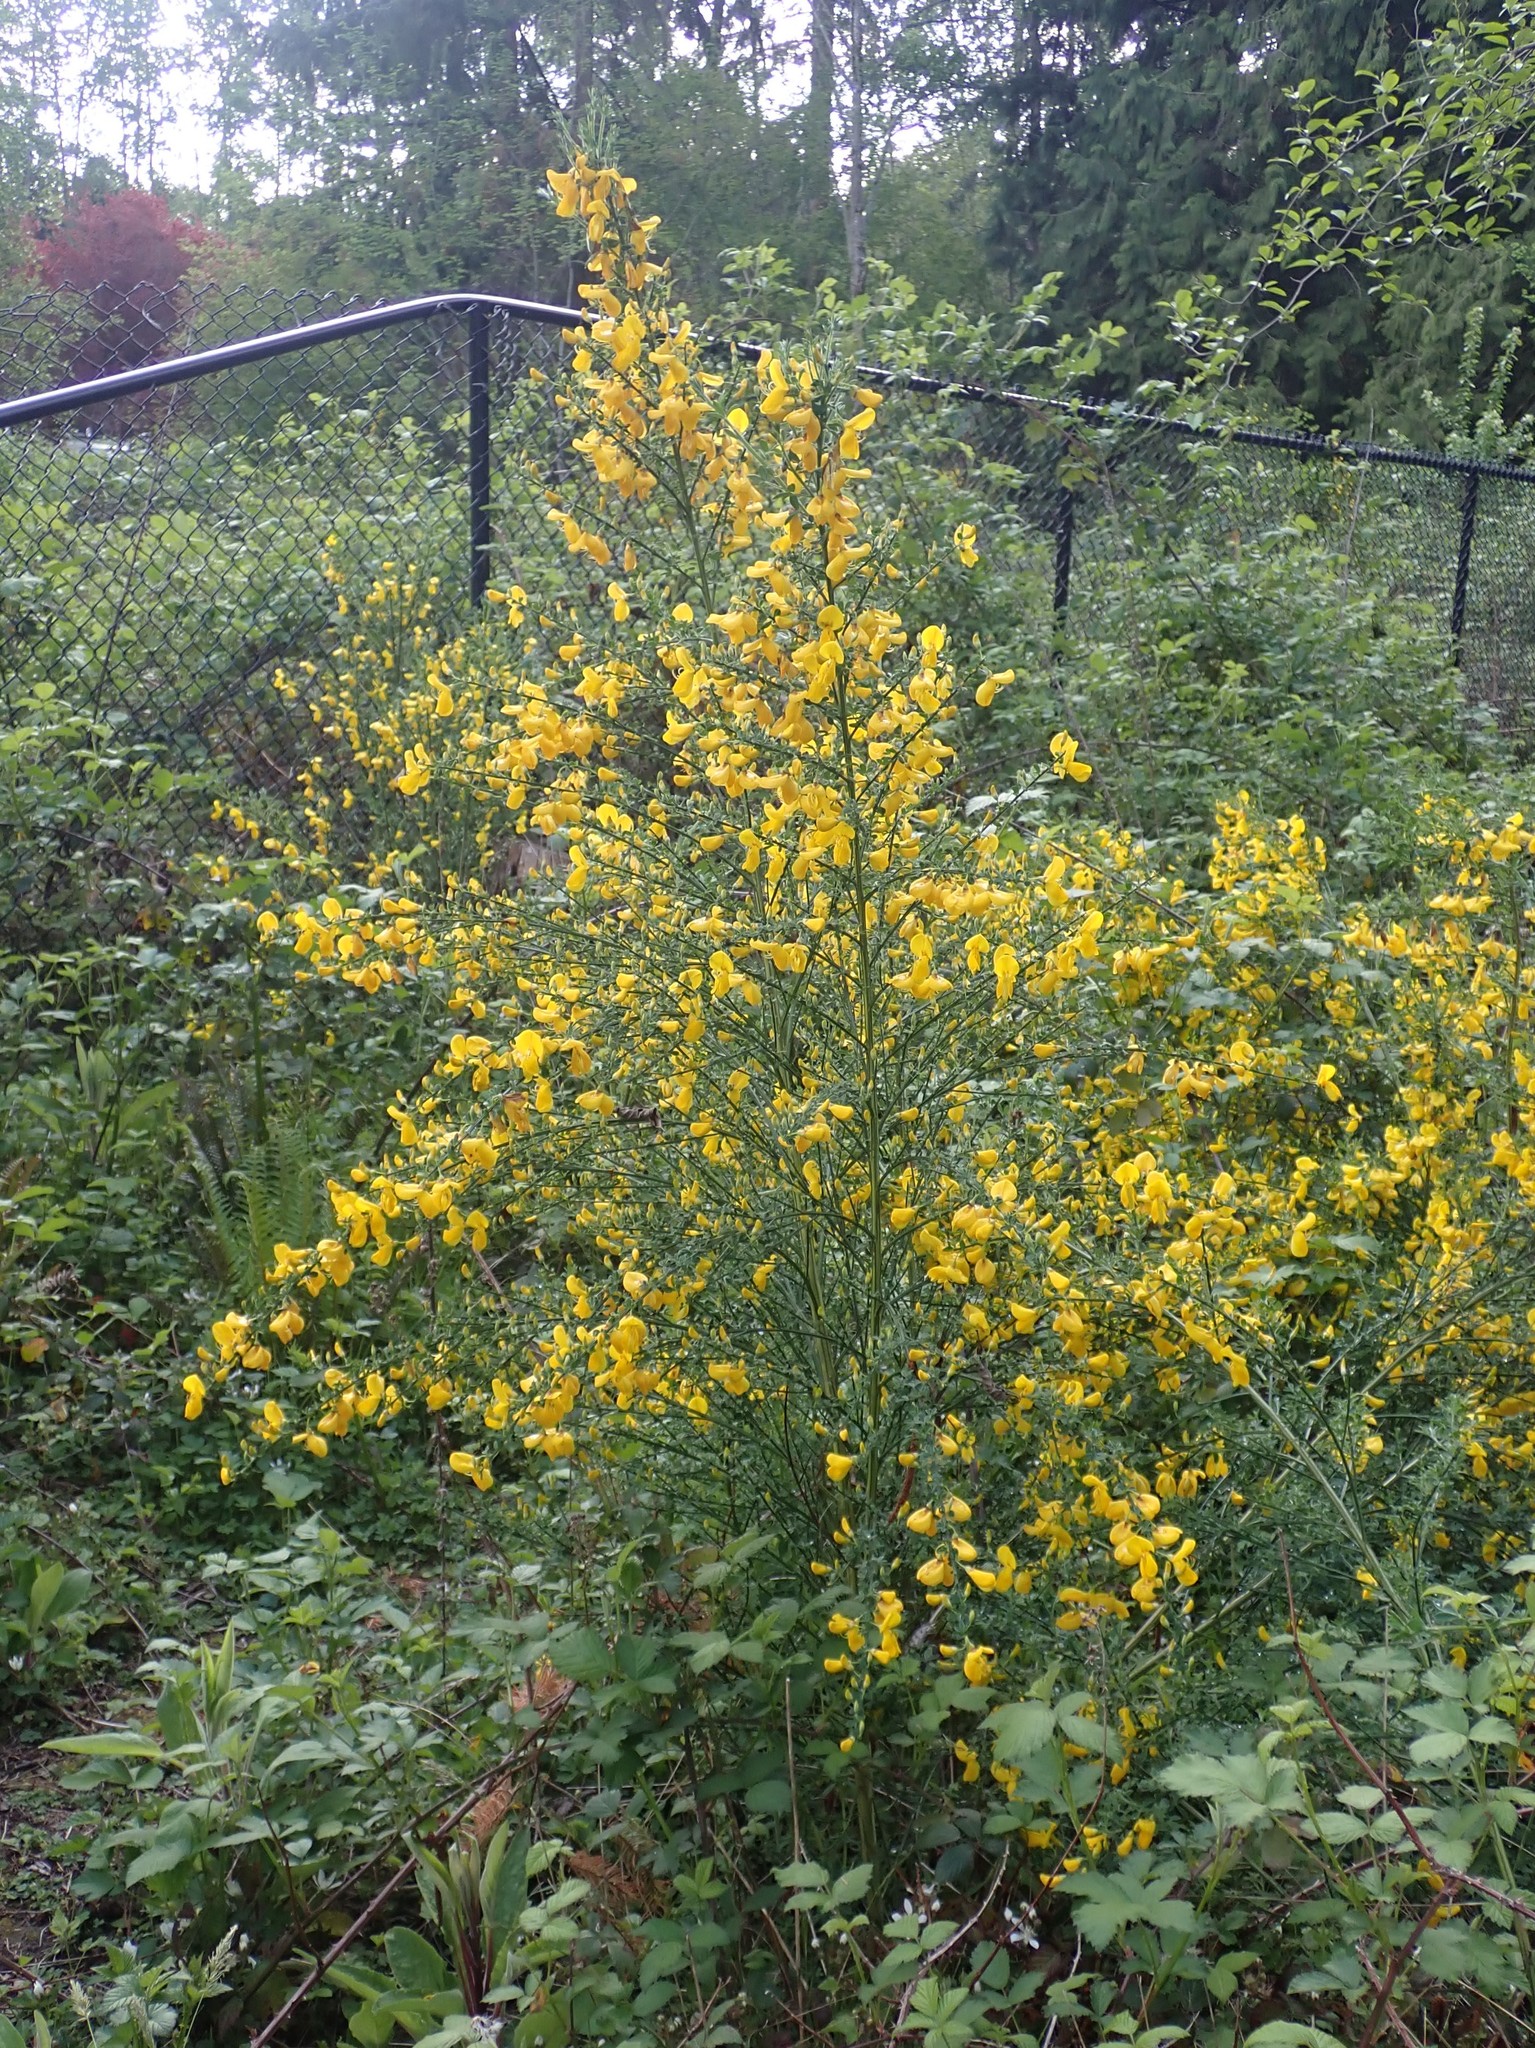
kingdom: Plantae
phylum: Tracheophyta
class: Magnoliopsida
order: Fabales
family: Fabaceae
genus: Cytisus
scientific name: Cytisus scoparius
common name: Scotch broom
